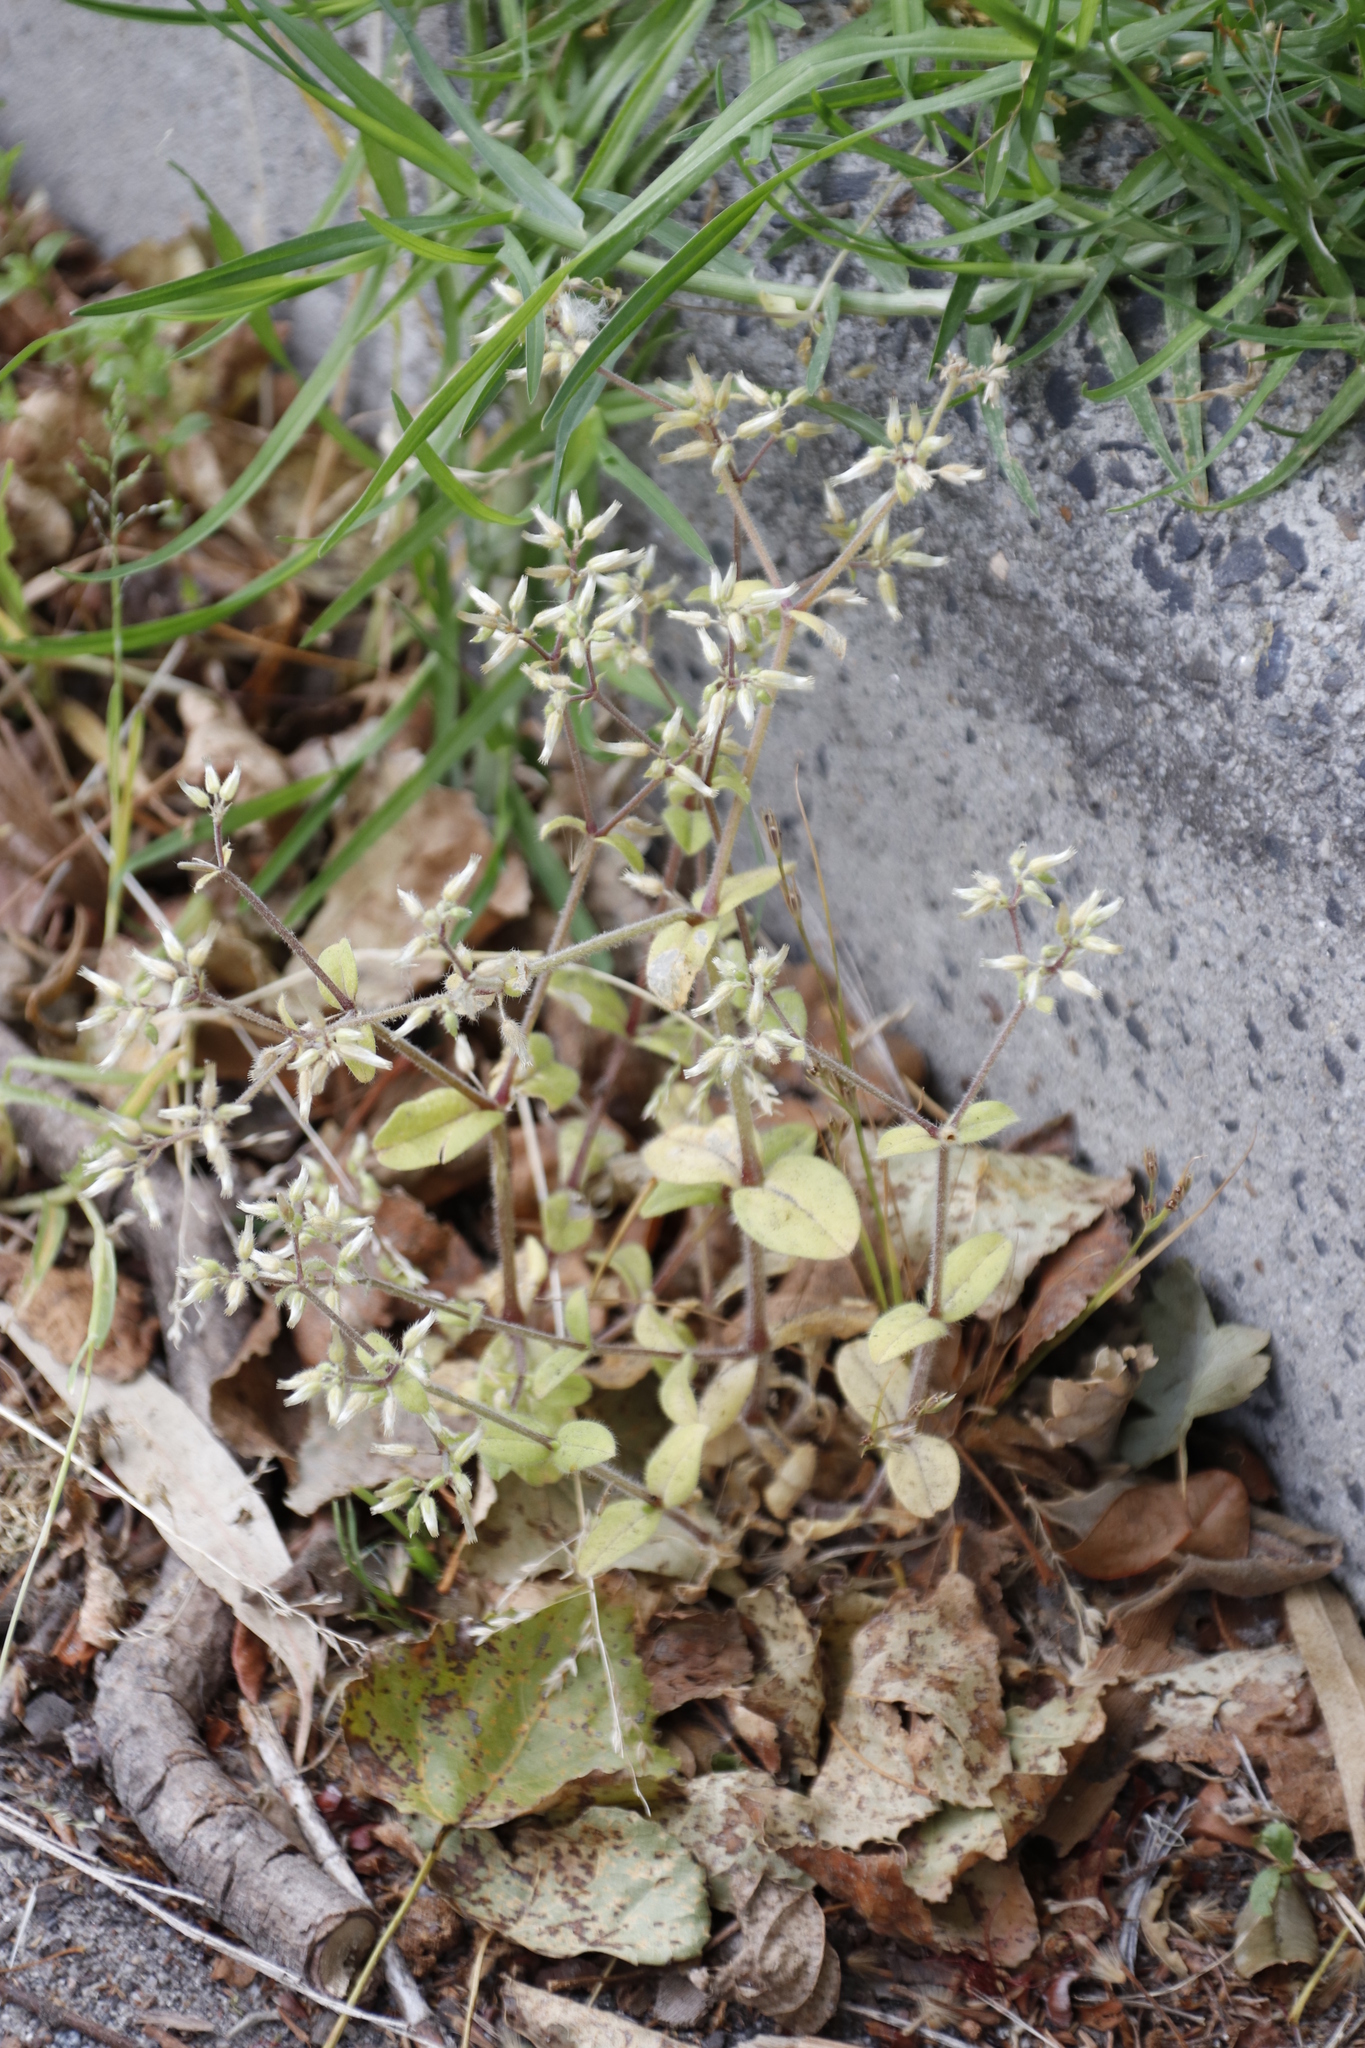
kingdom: Plantae
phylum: Tracheophyta
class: Magnoliopsida
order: Caryophyllales
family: Caryophyllaceae
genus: Cerastium
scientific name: Cerastium glomeratum
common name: Sticky chickweed
